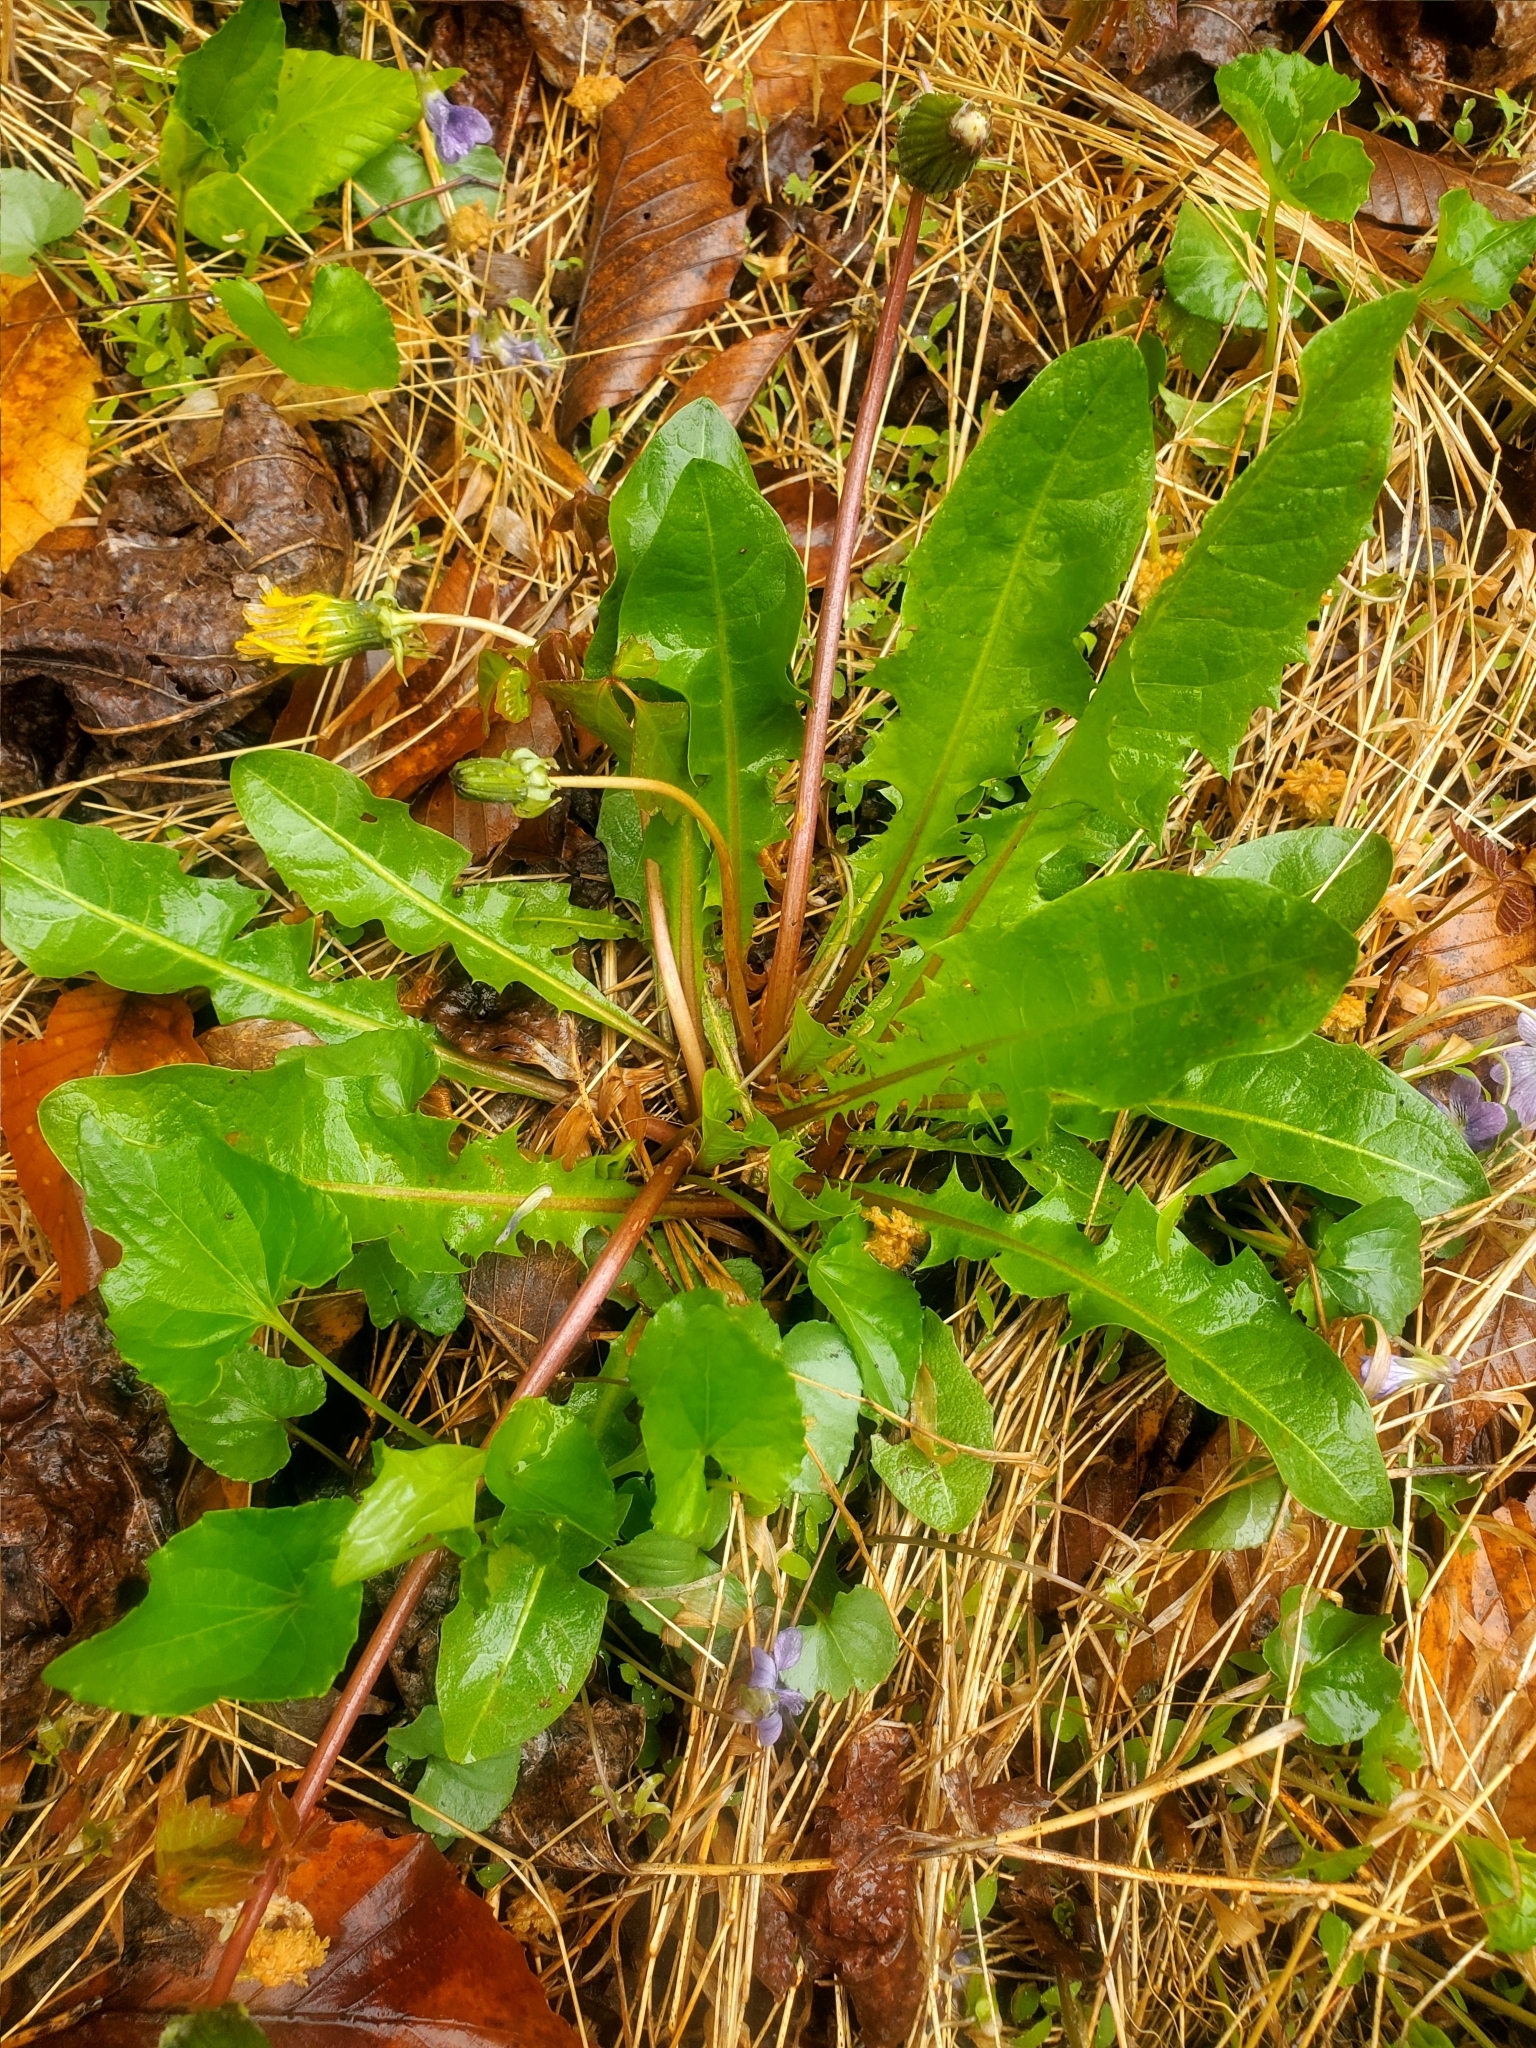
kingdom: Plantae
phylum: Tracheophyta
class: Magnoliopsida
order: Asterales
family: Asteraceae
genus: Taraxacum
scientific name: Taraxacum officinale
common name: Common dandelion
